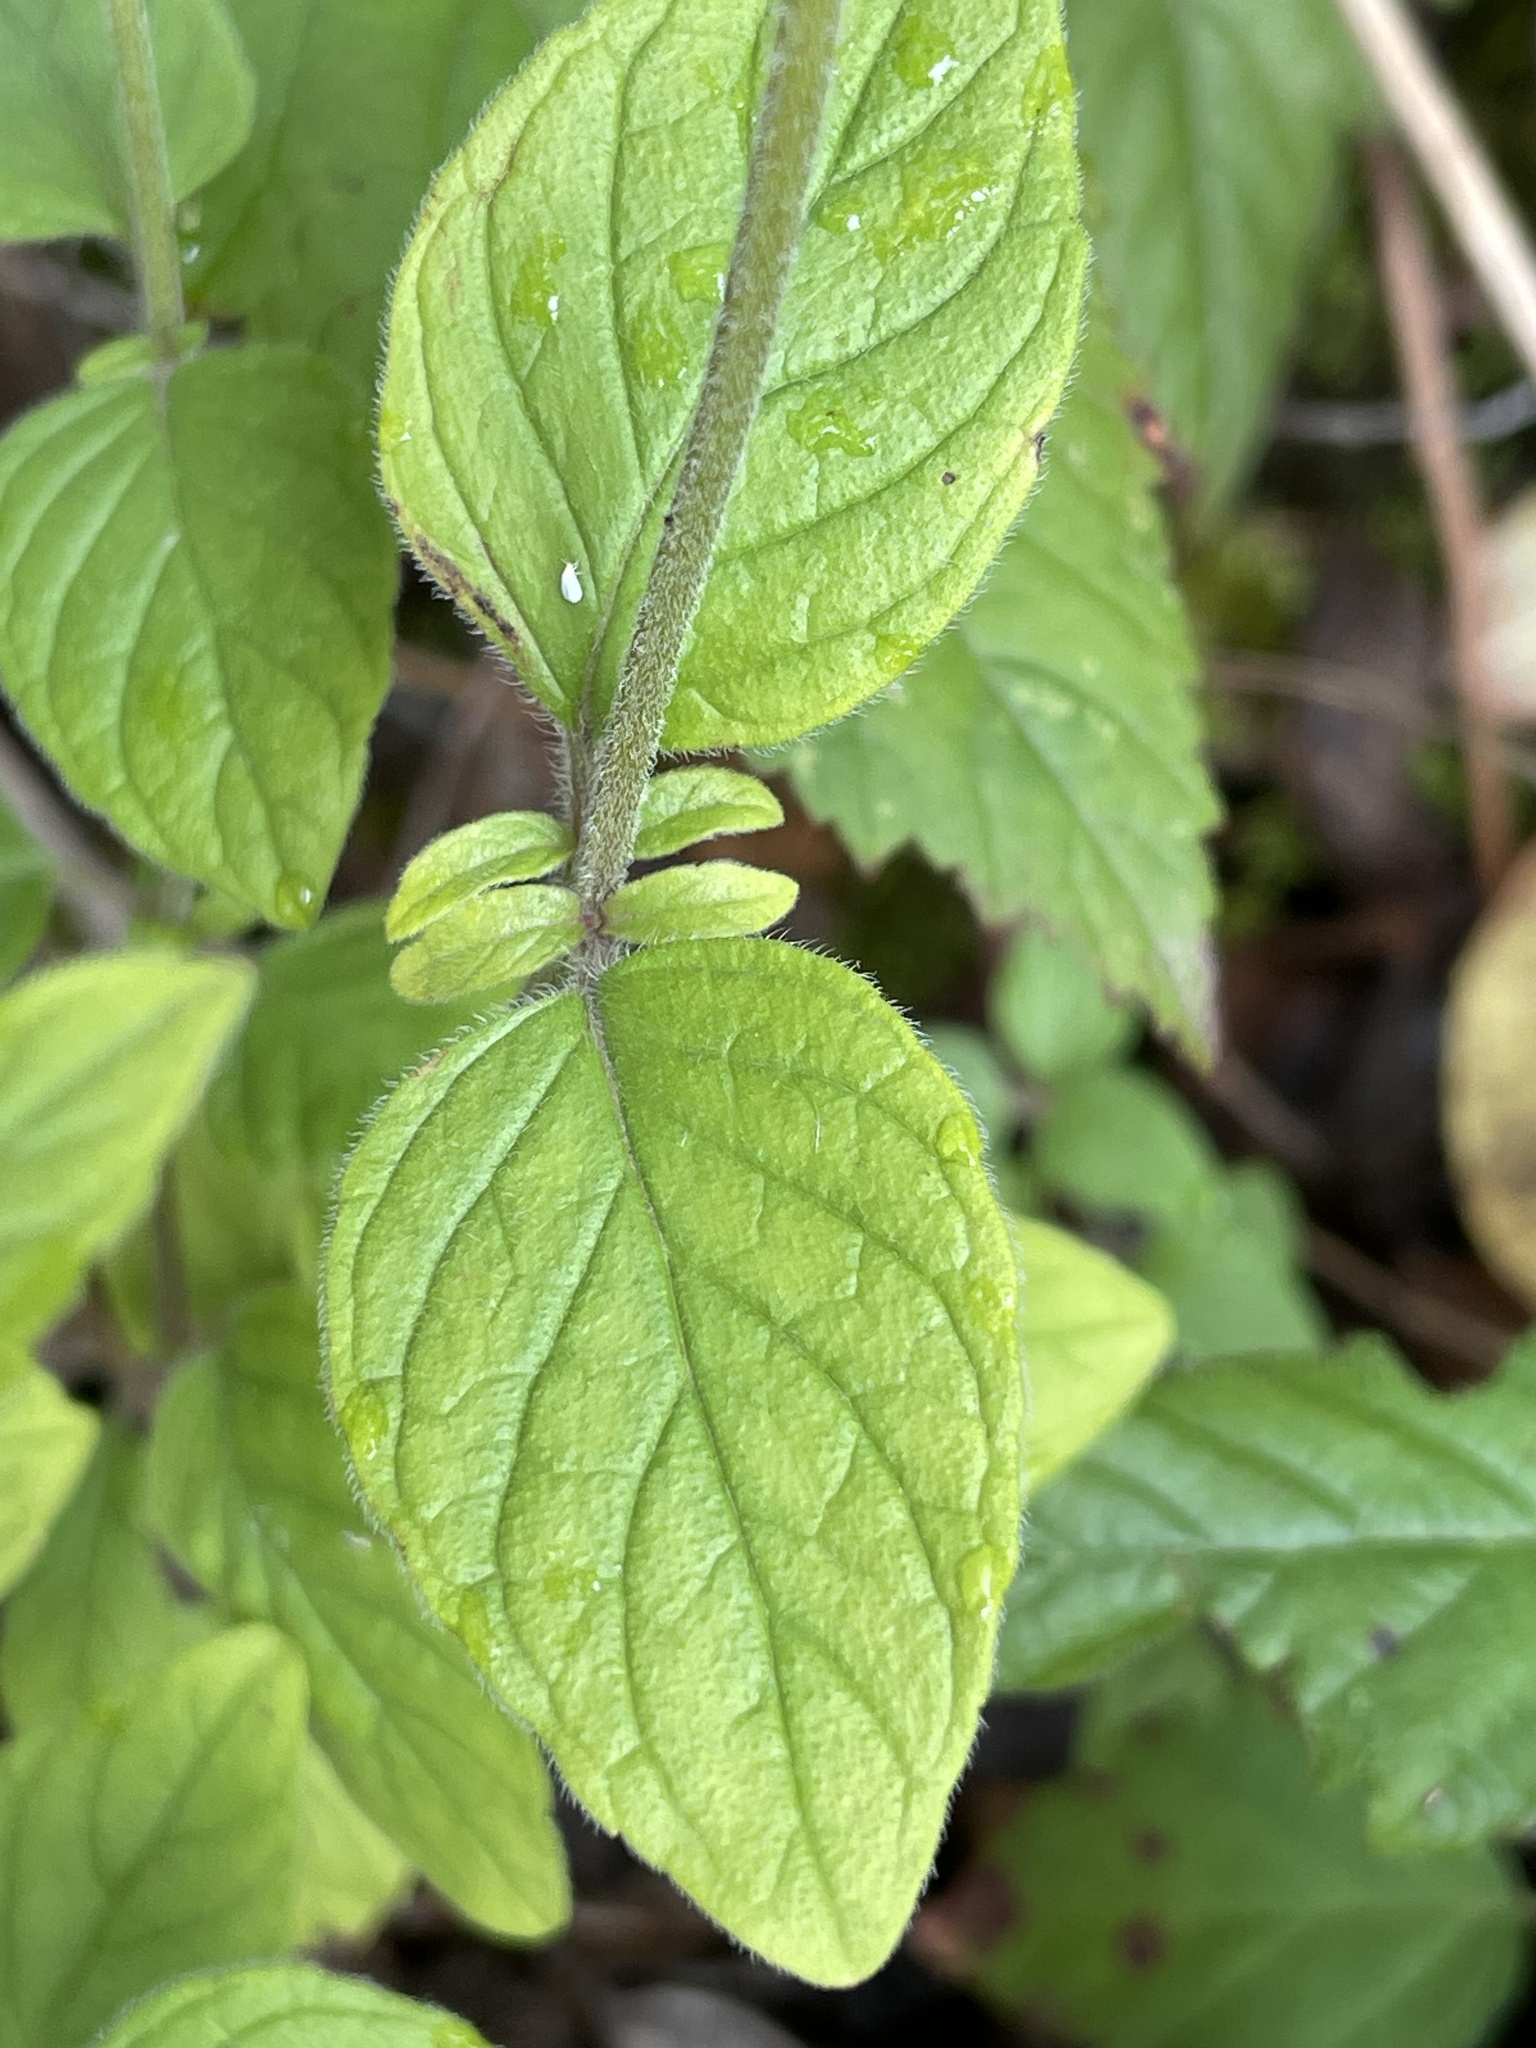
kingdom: Plantae
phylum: Tracheophyta
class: Magnoliopsida
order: Lamiales
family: Lamiaceae
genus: Clinopodium
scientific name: Clinopodium vulgare
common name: Wild basil
